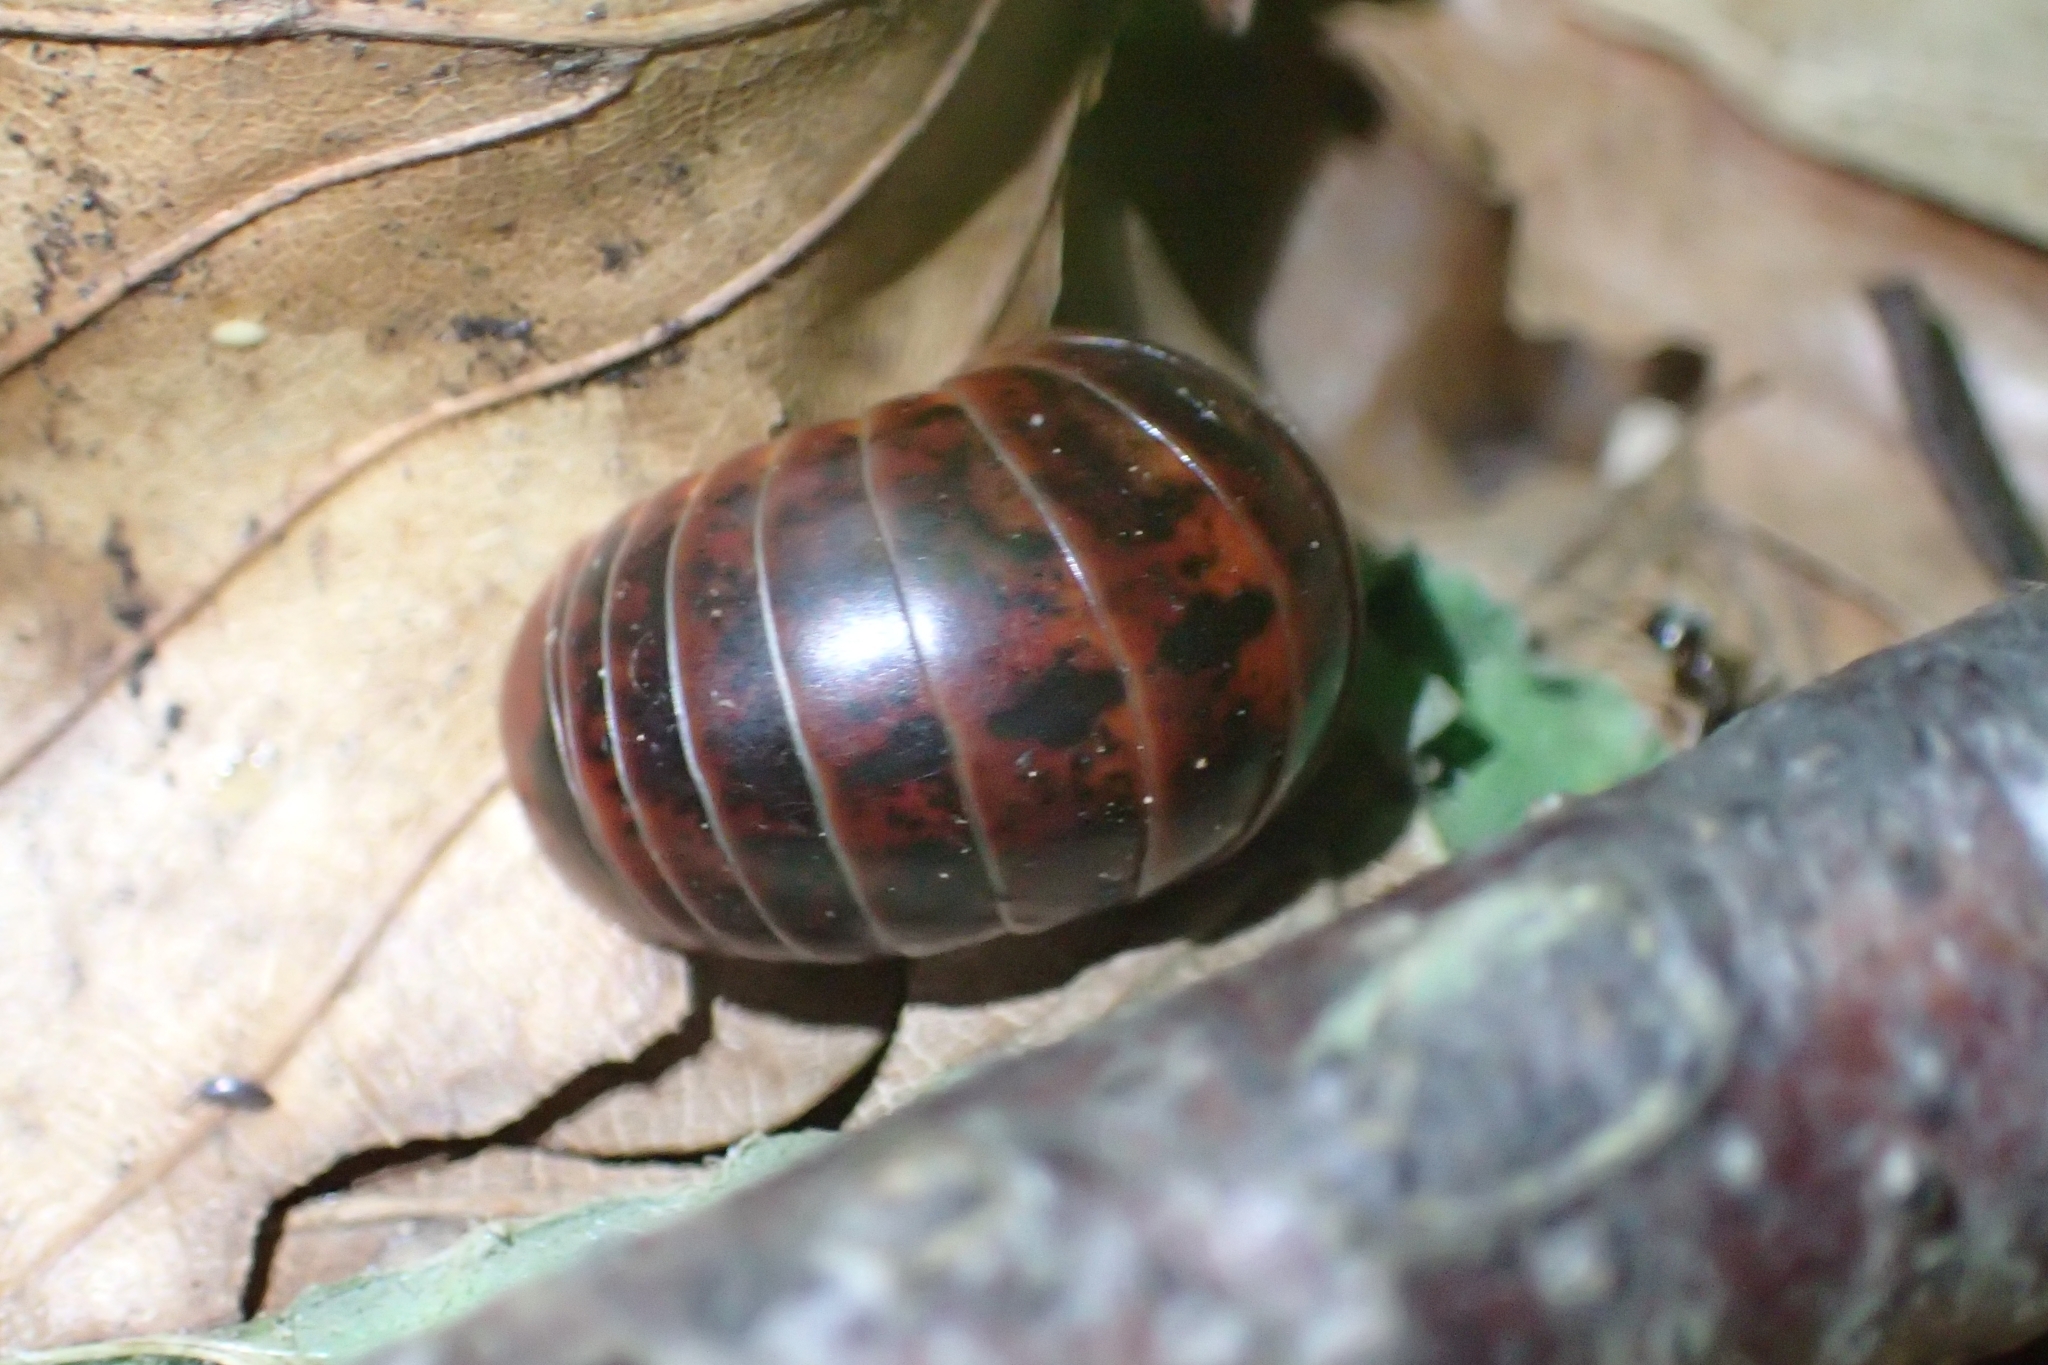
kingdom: Animalia
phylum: Arthropoda
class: Diplopoda
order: Glomerida
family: Glomeridae
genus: Glomeris
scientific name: Glomeris klugii
